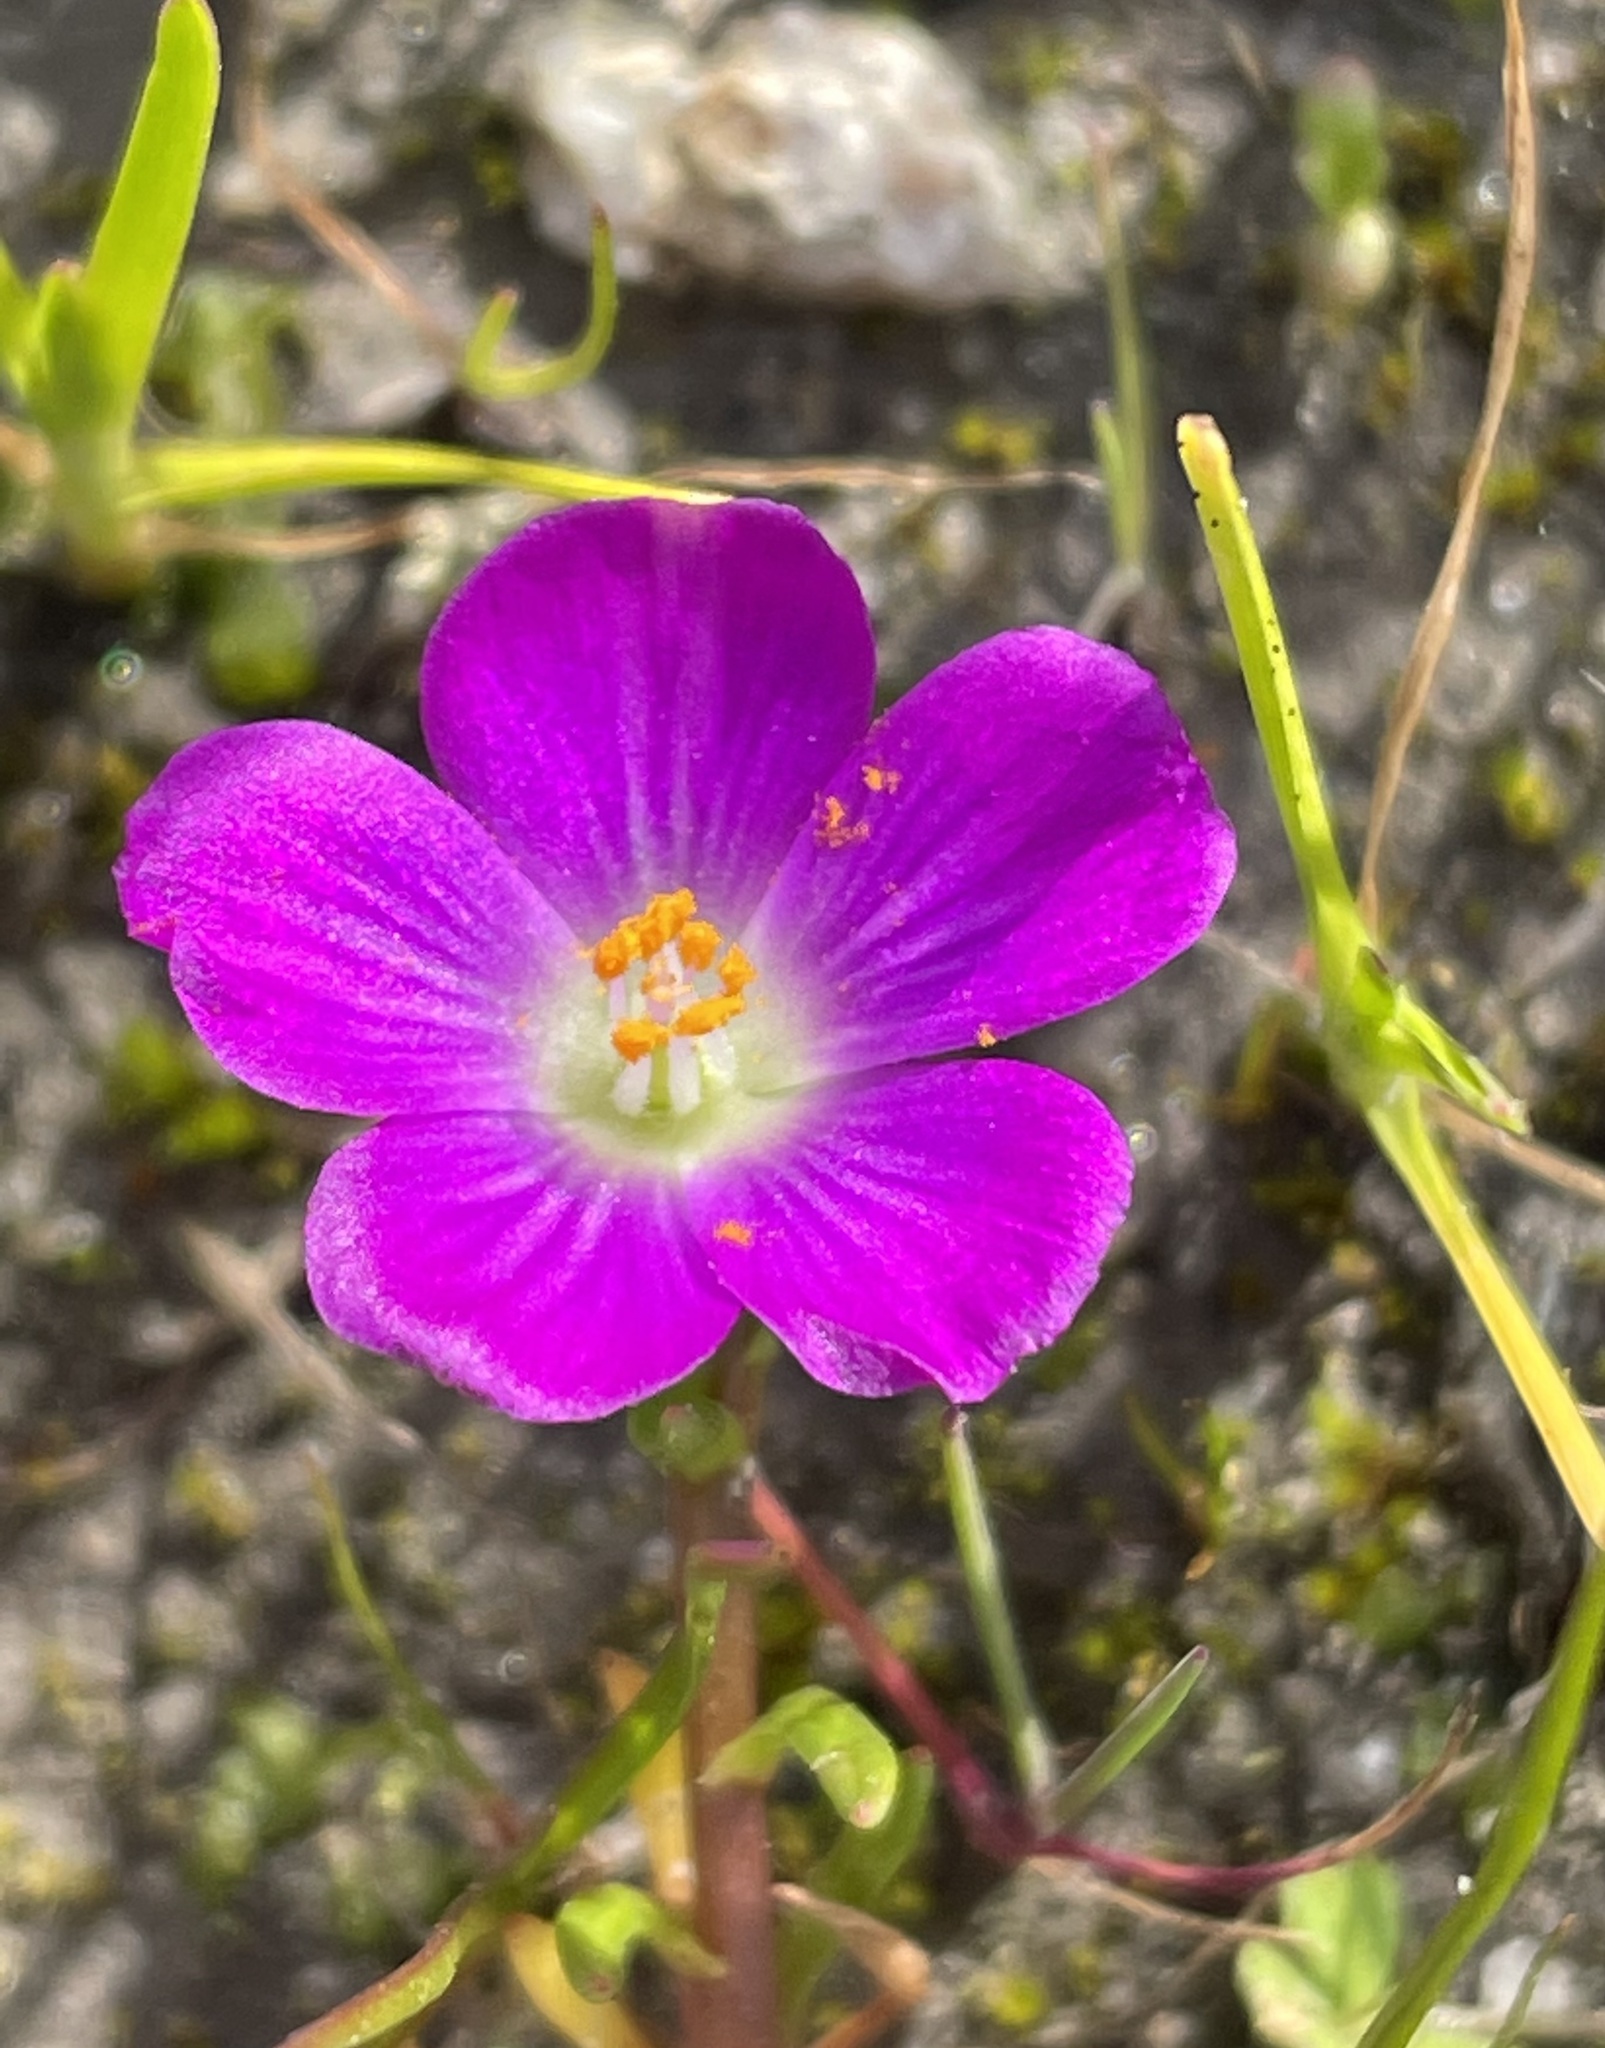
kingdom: Plantae
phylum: Tracheophyta
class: Magnoliopsida
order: Caryophyllales
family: Montiaceae
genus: Calandrinia
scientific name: Calandrinia menziesii
